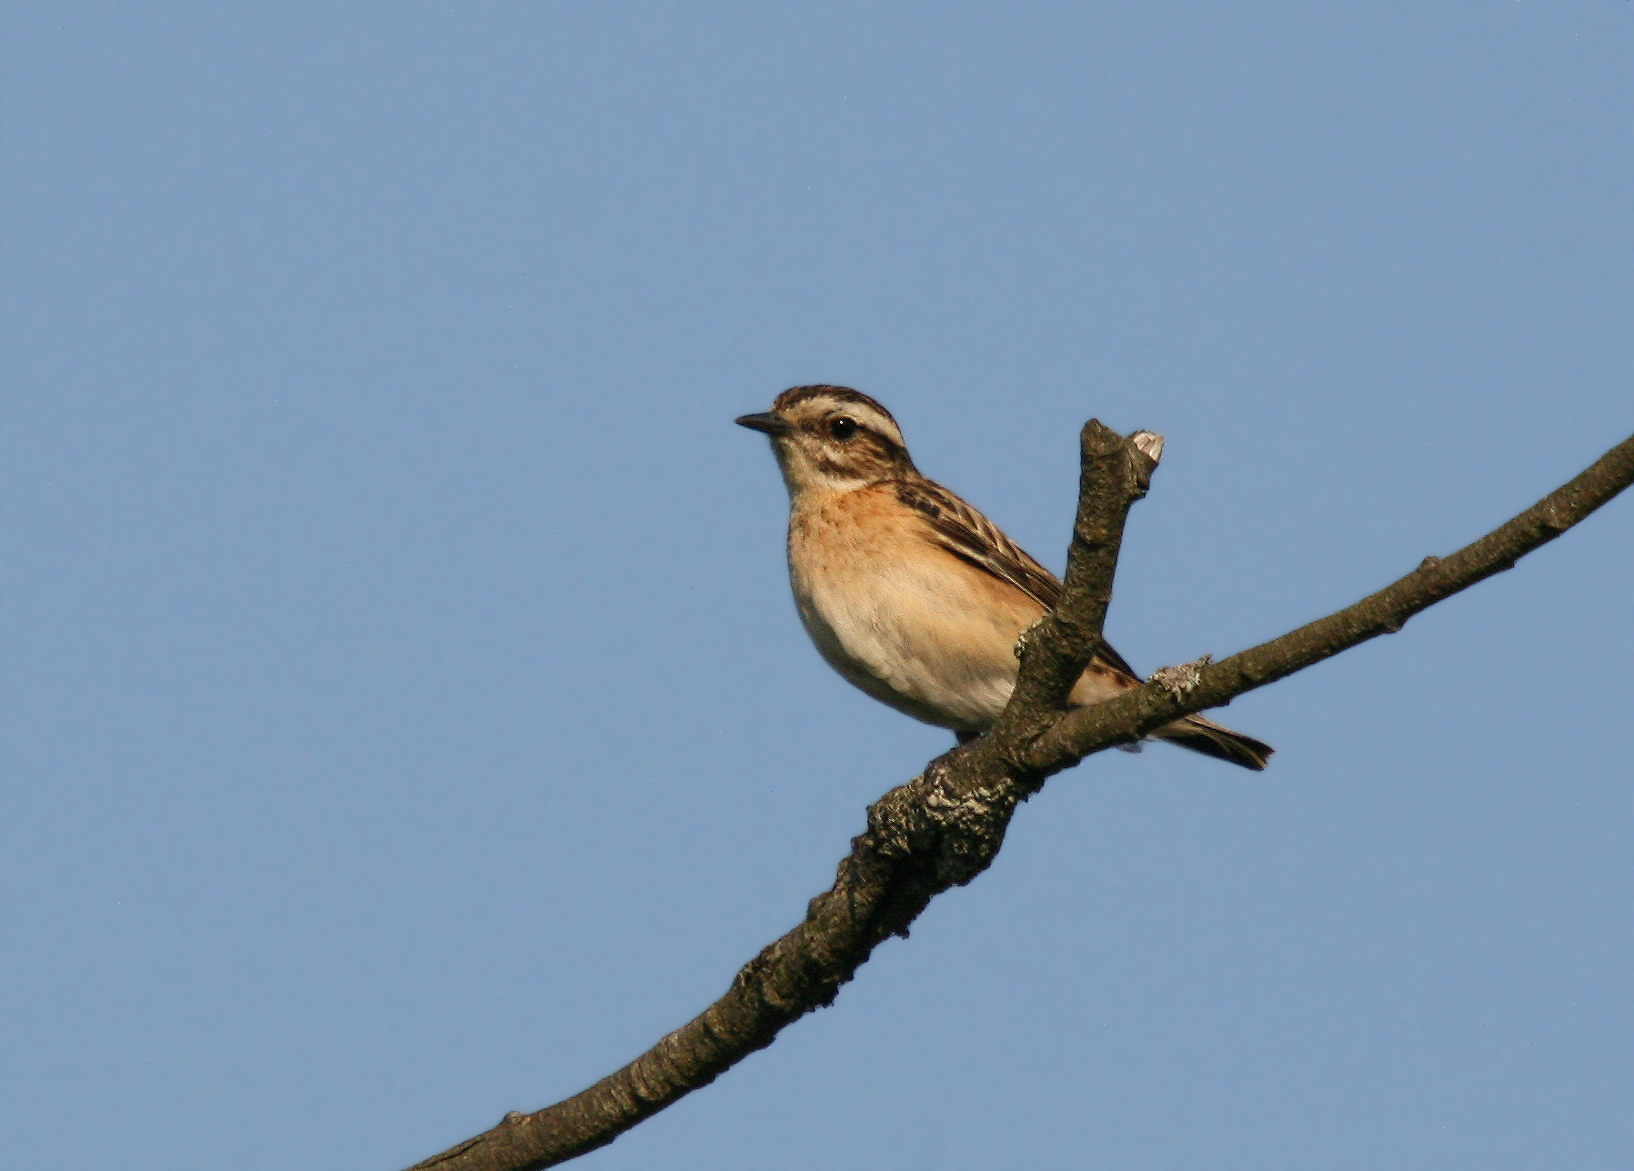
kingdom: Animalia
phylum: Chordata
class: Aves
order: Passeriformes
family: Muscicapidae
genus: Saxicola
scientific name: Saxicola rubetra
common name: Whinchat
